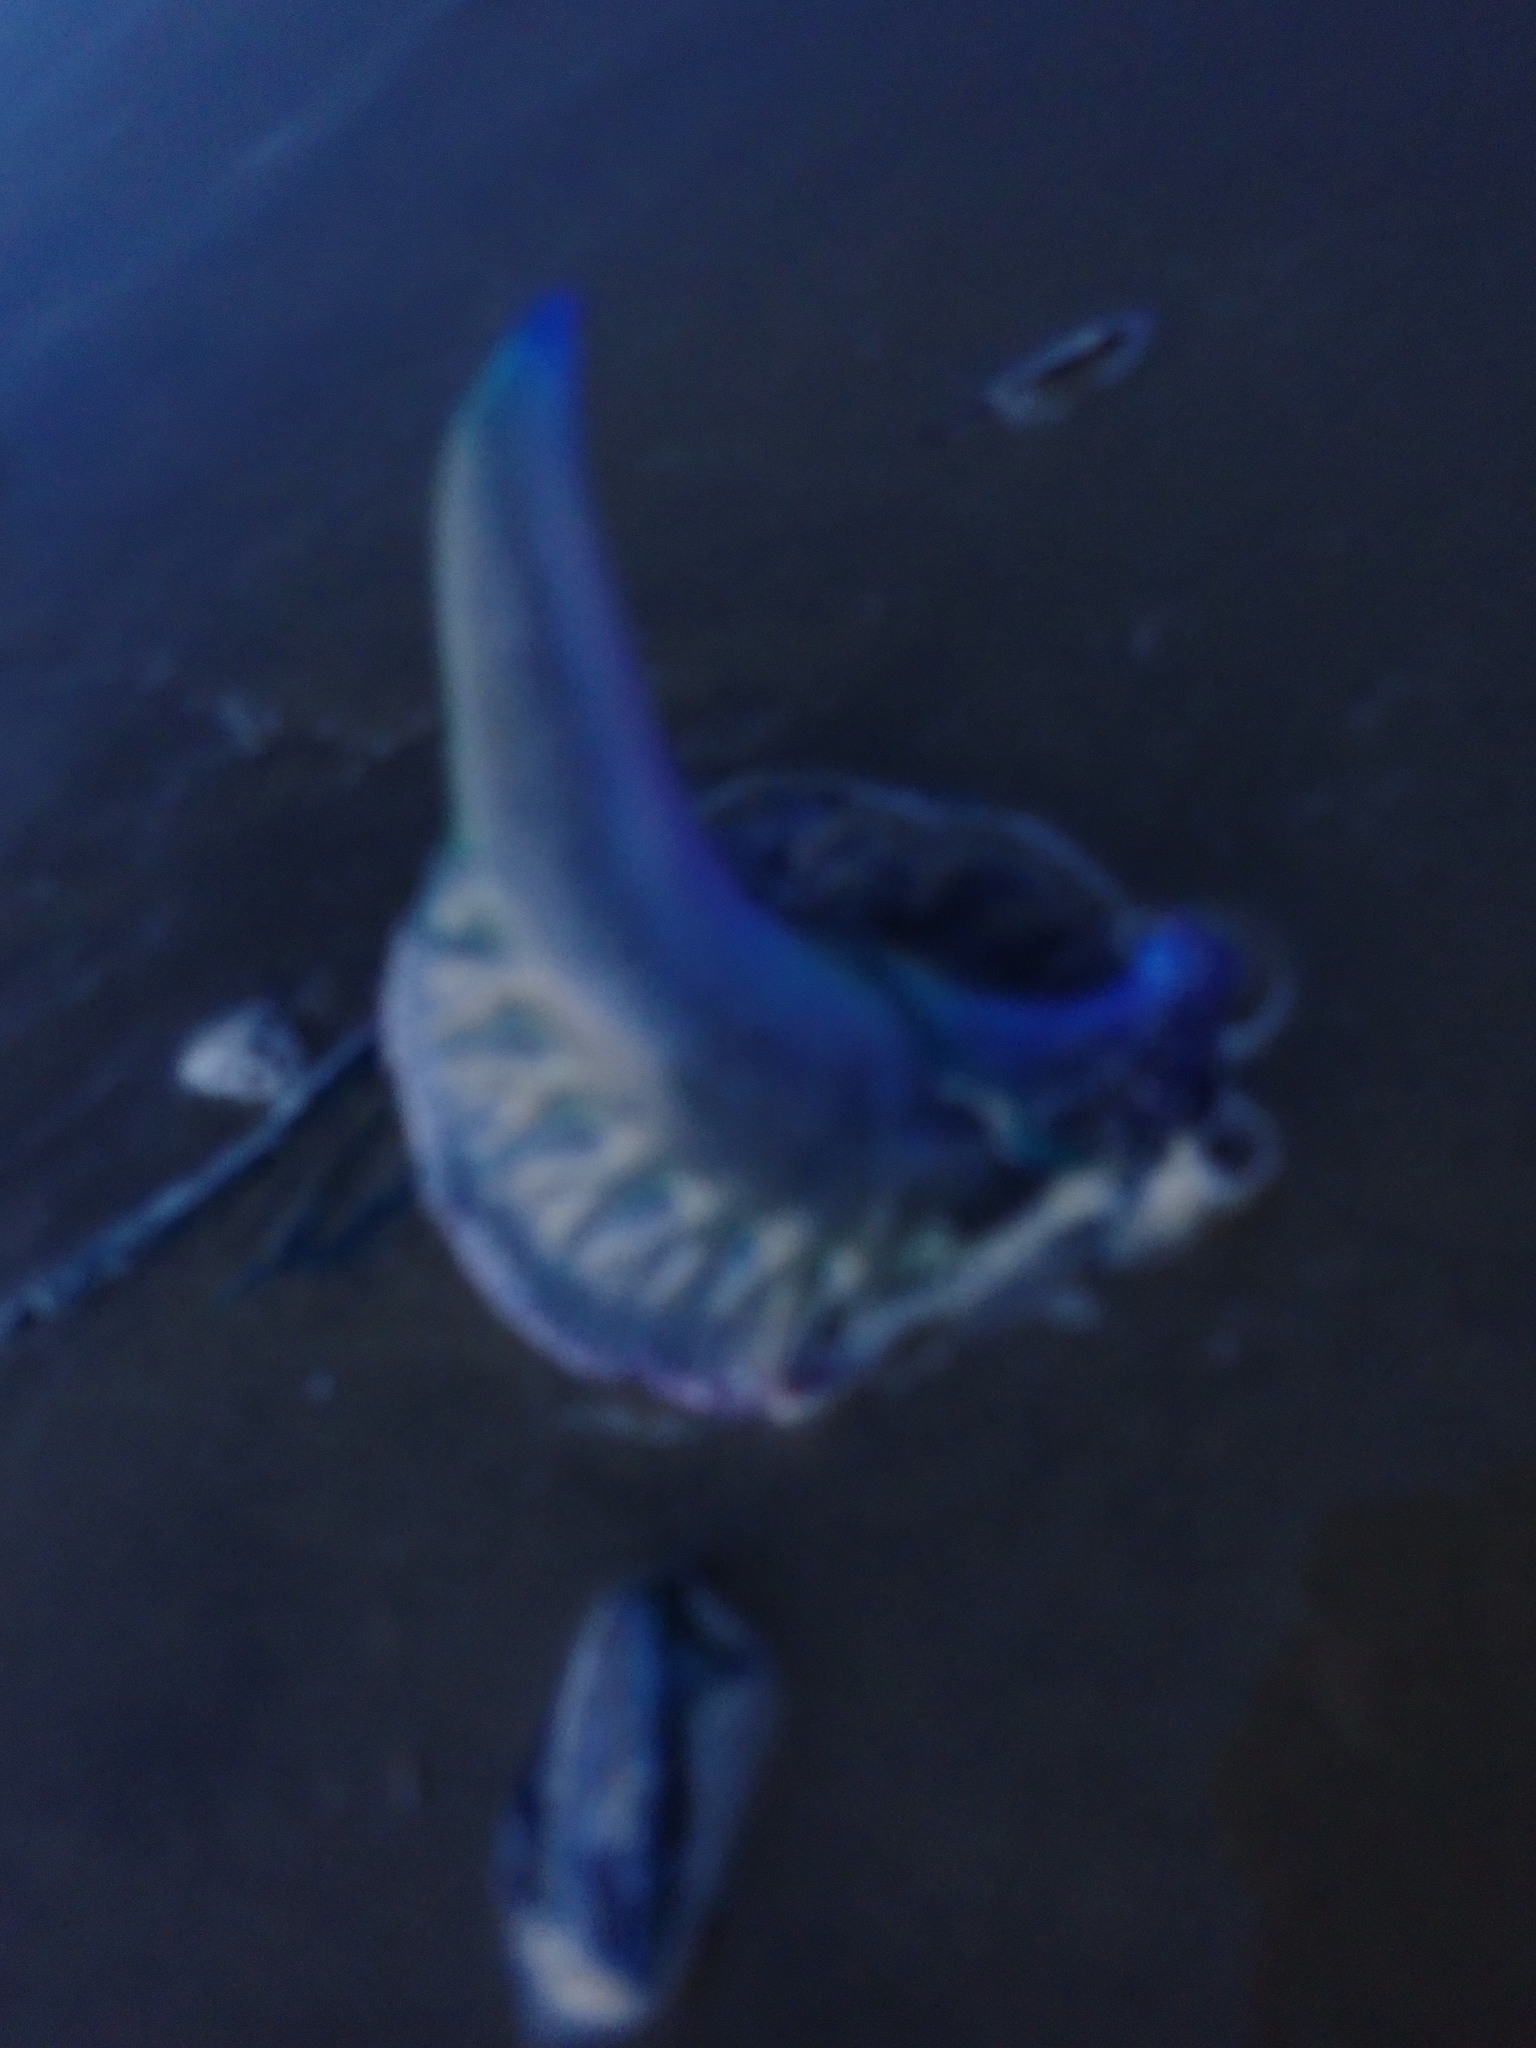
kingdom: Animalia
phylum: Cnidaria
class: Hydrozoa
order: Siphonophorae
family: Physaliidae
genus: Physalia
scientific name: Physalia physalis
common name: Portuguese man-of-war
